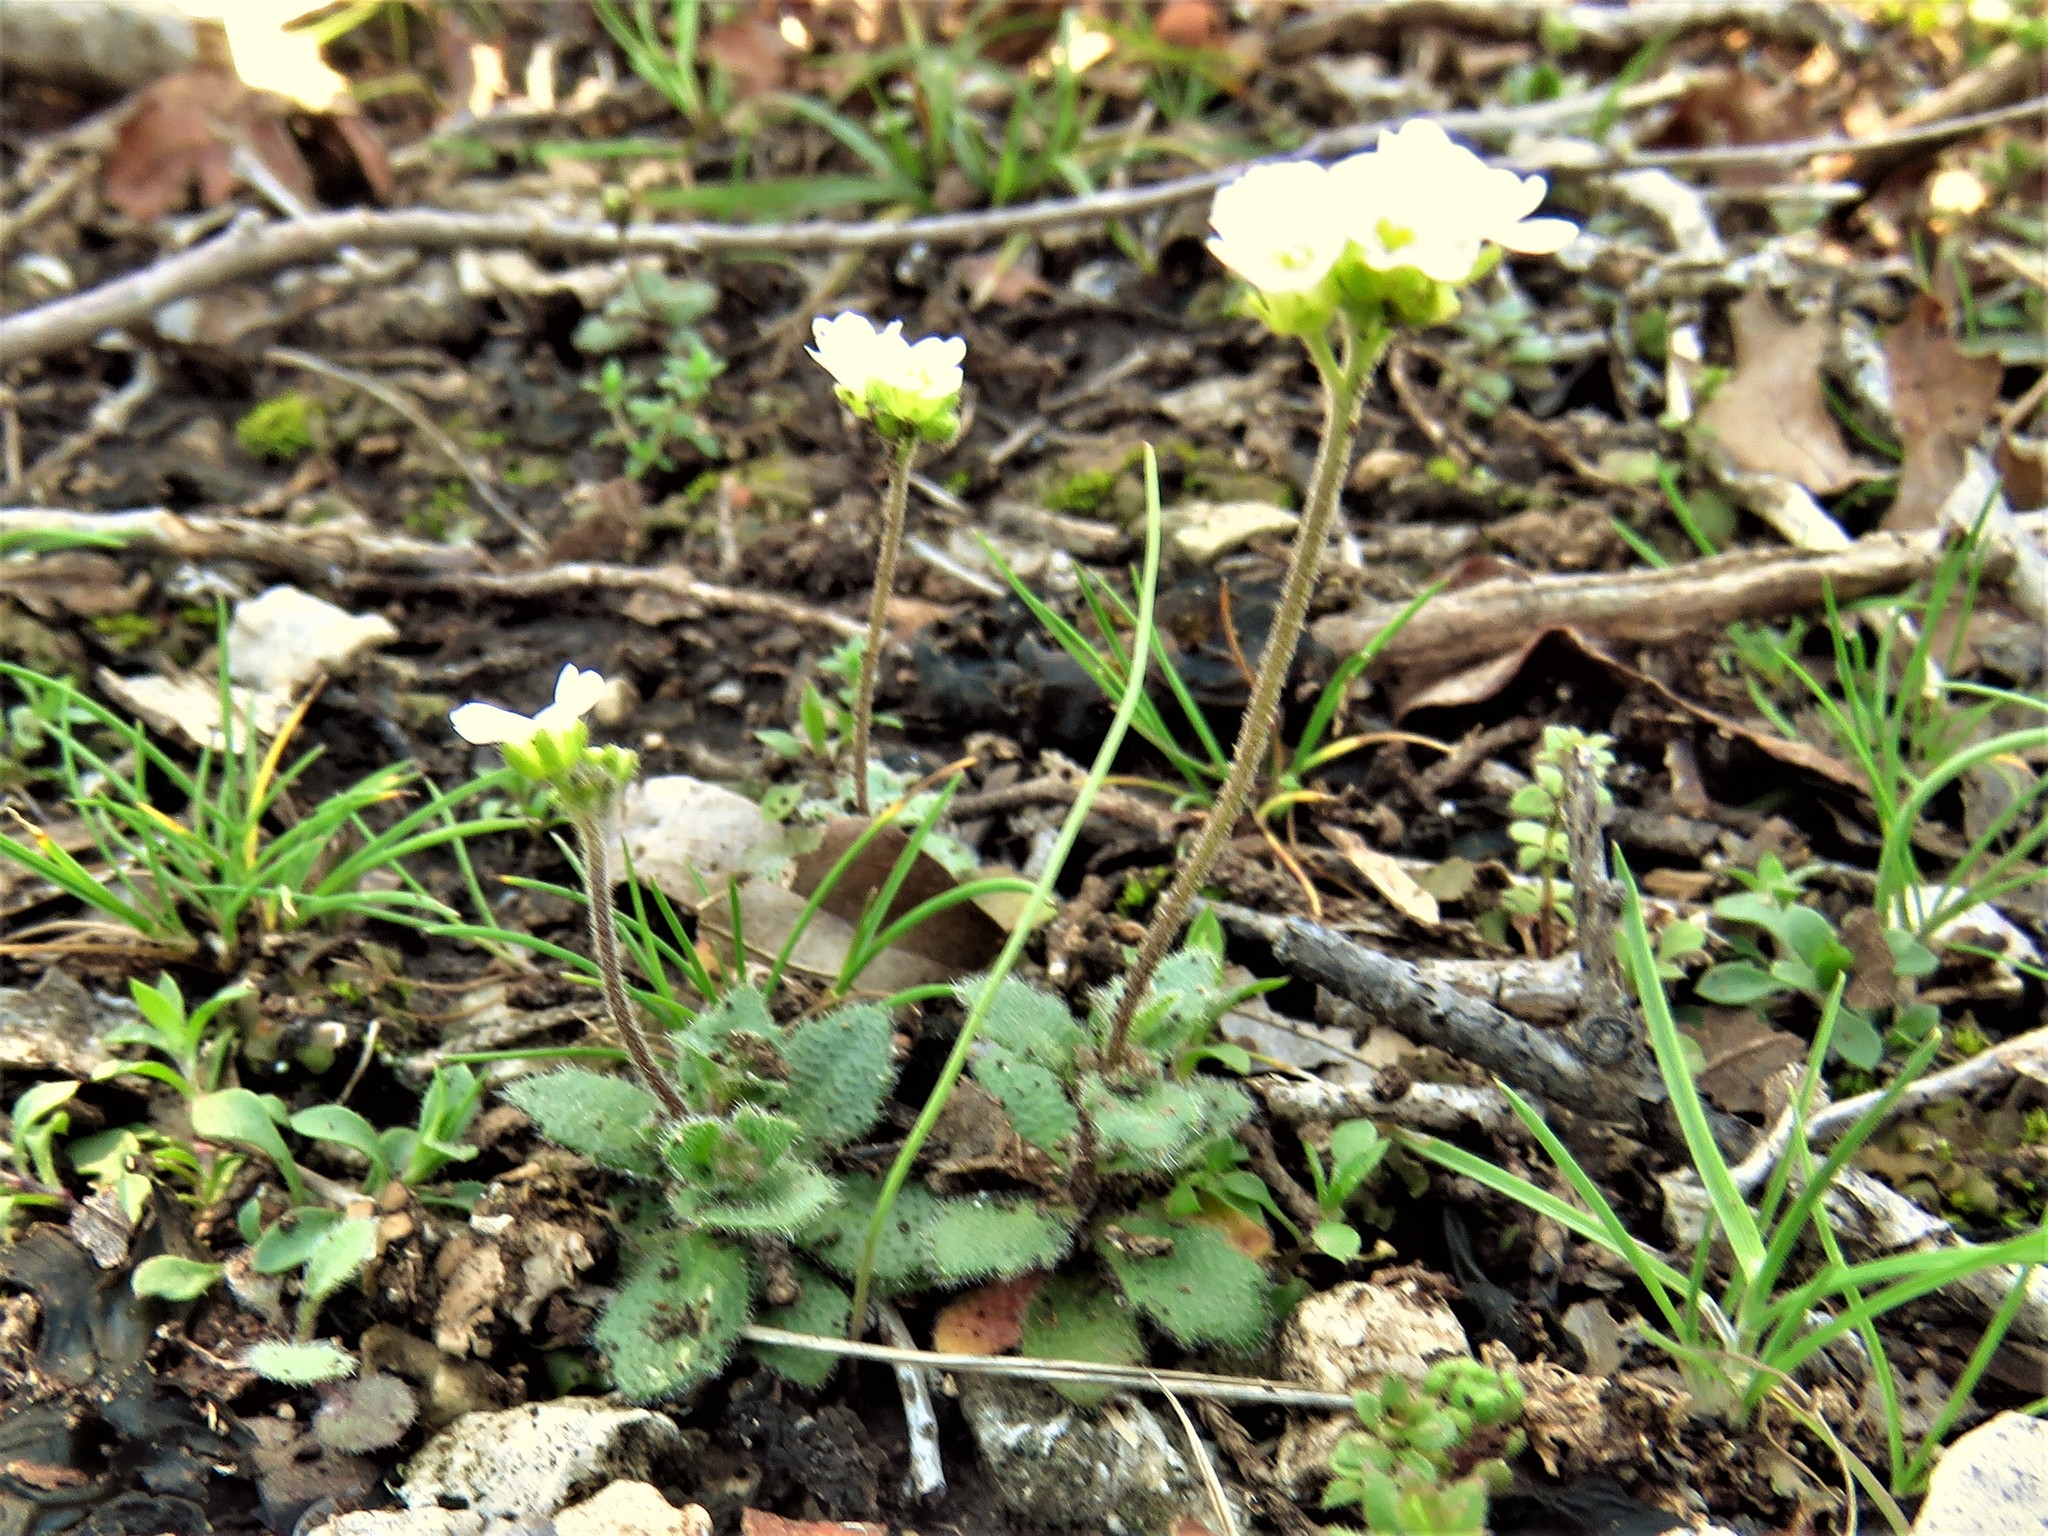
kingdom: Plantae
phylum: Tracheophyta
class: Magnoliopsida
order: Brassicales
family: Brassicaceae
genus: Tomostima
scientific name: Tomostima cuneifolia
